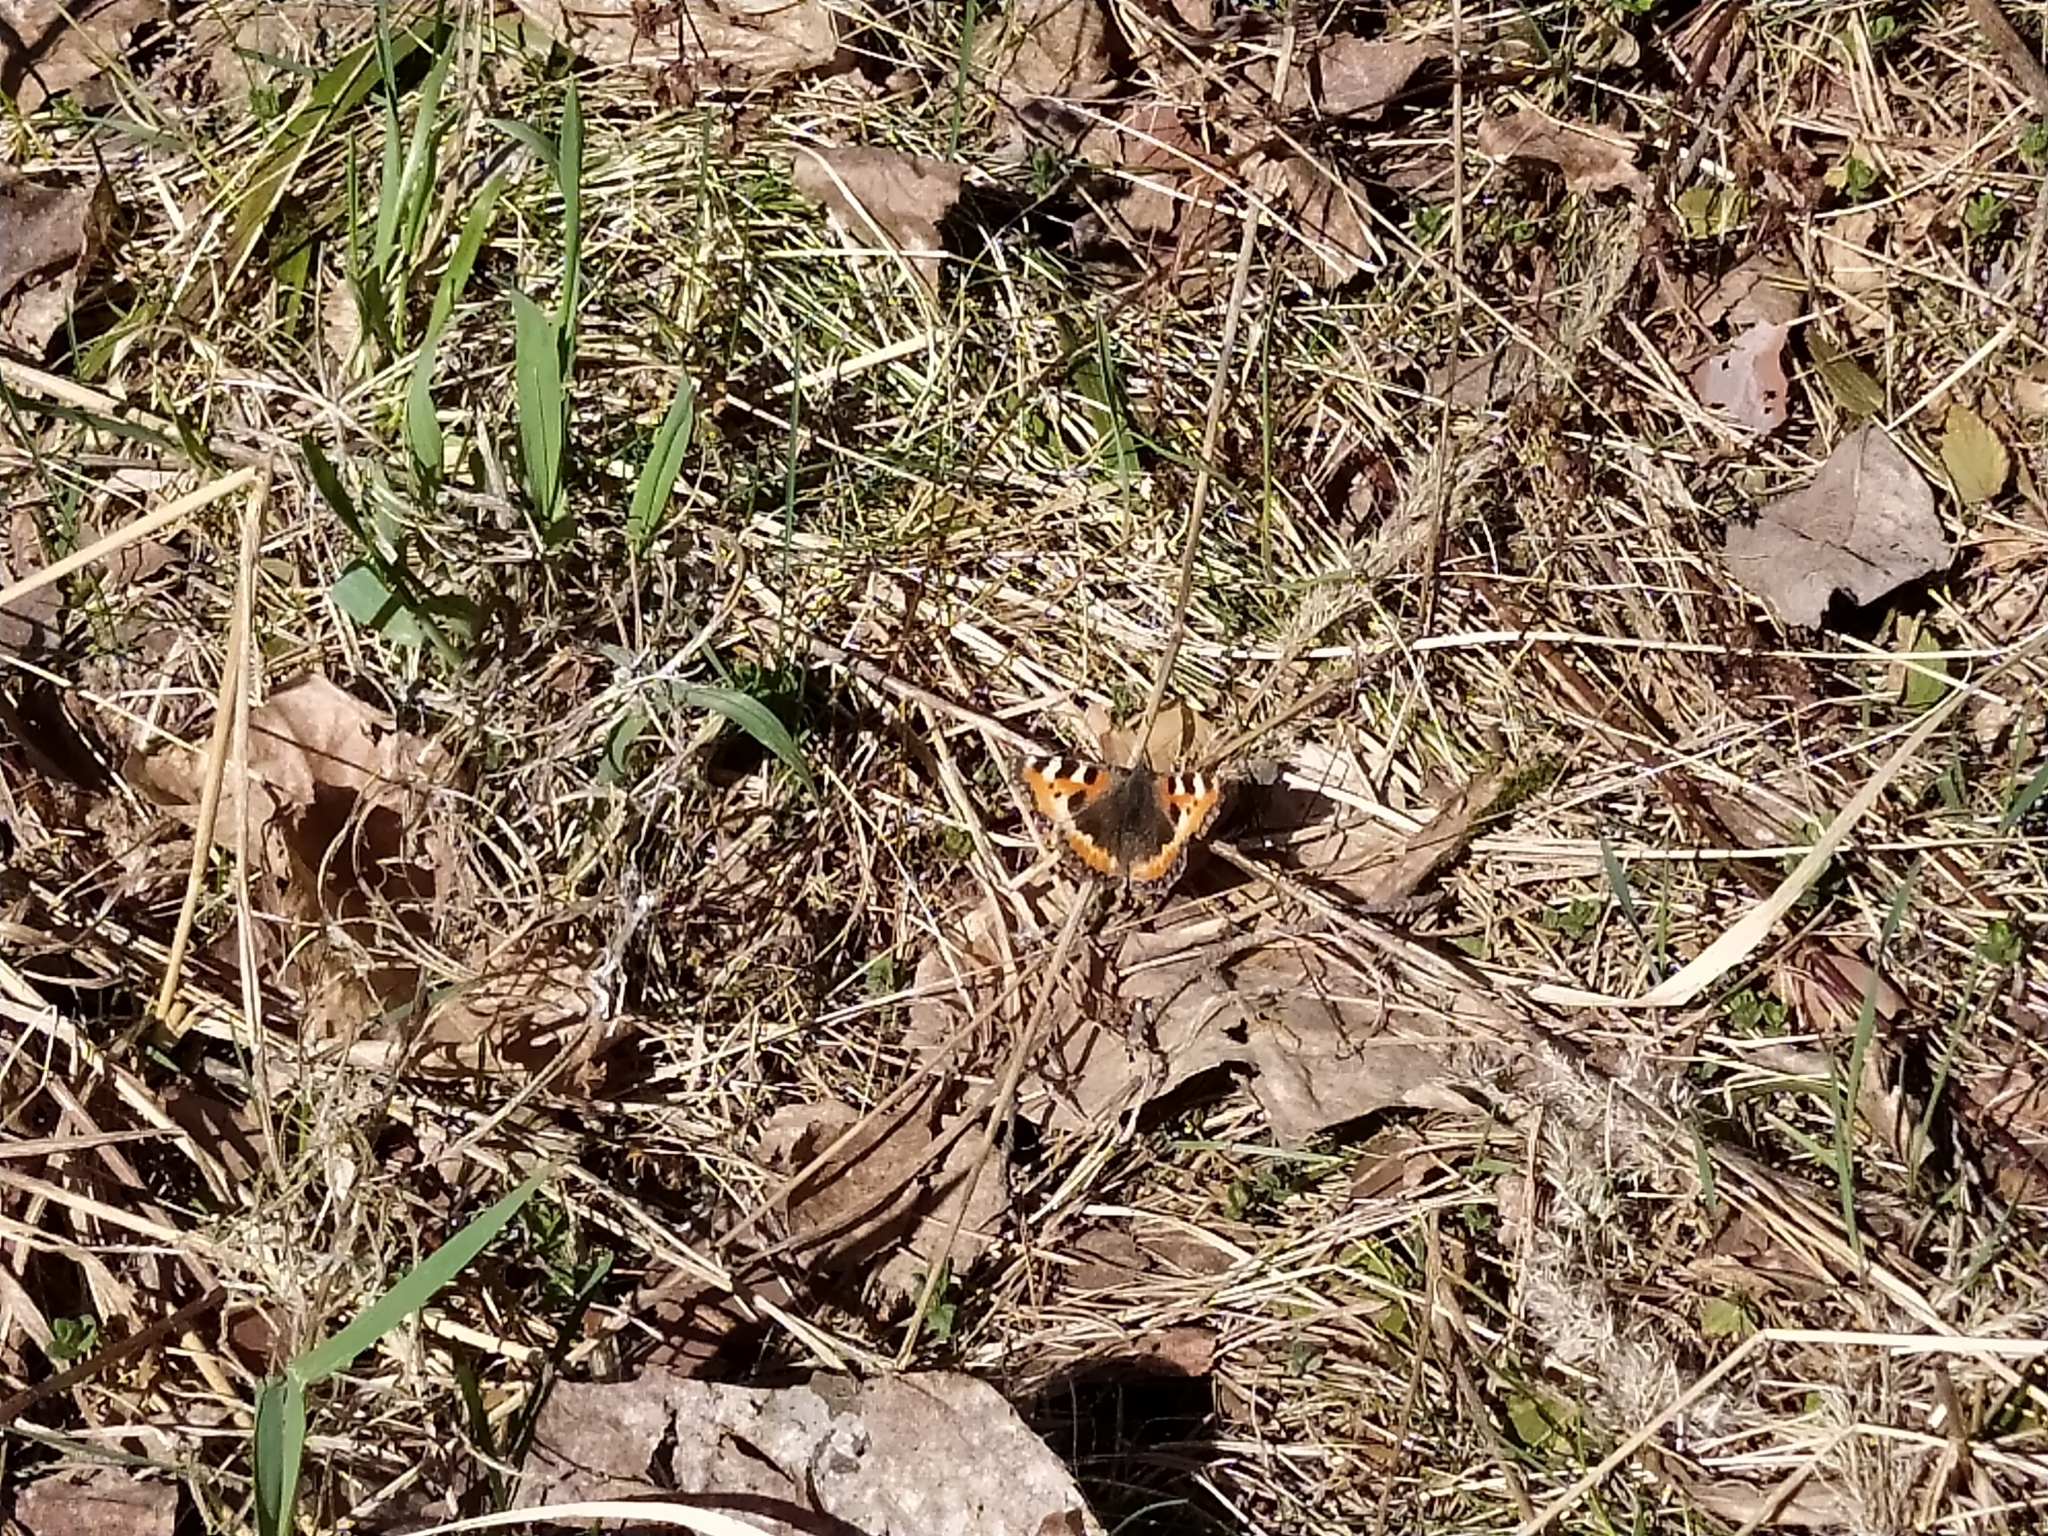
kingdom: Animalia
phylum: Arthropoda
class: Insecta
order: Lepidoptera
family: Nymphalidae
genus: Aglais
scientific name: Aglais urticae
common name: Small tortoiseshell
